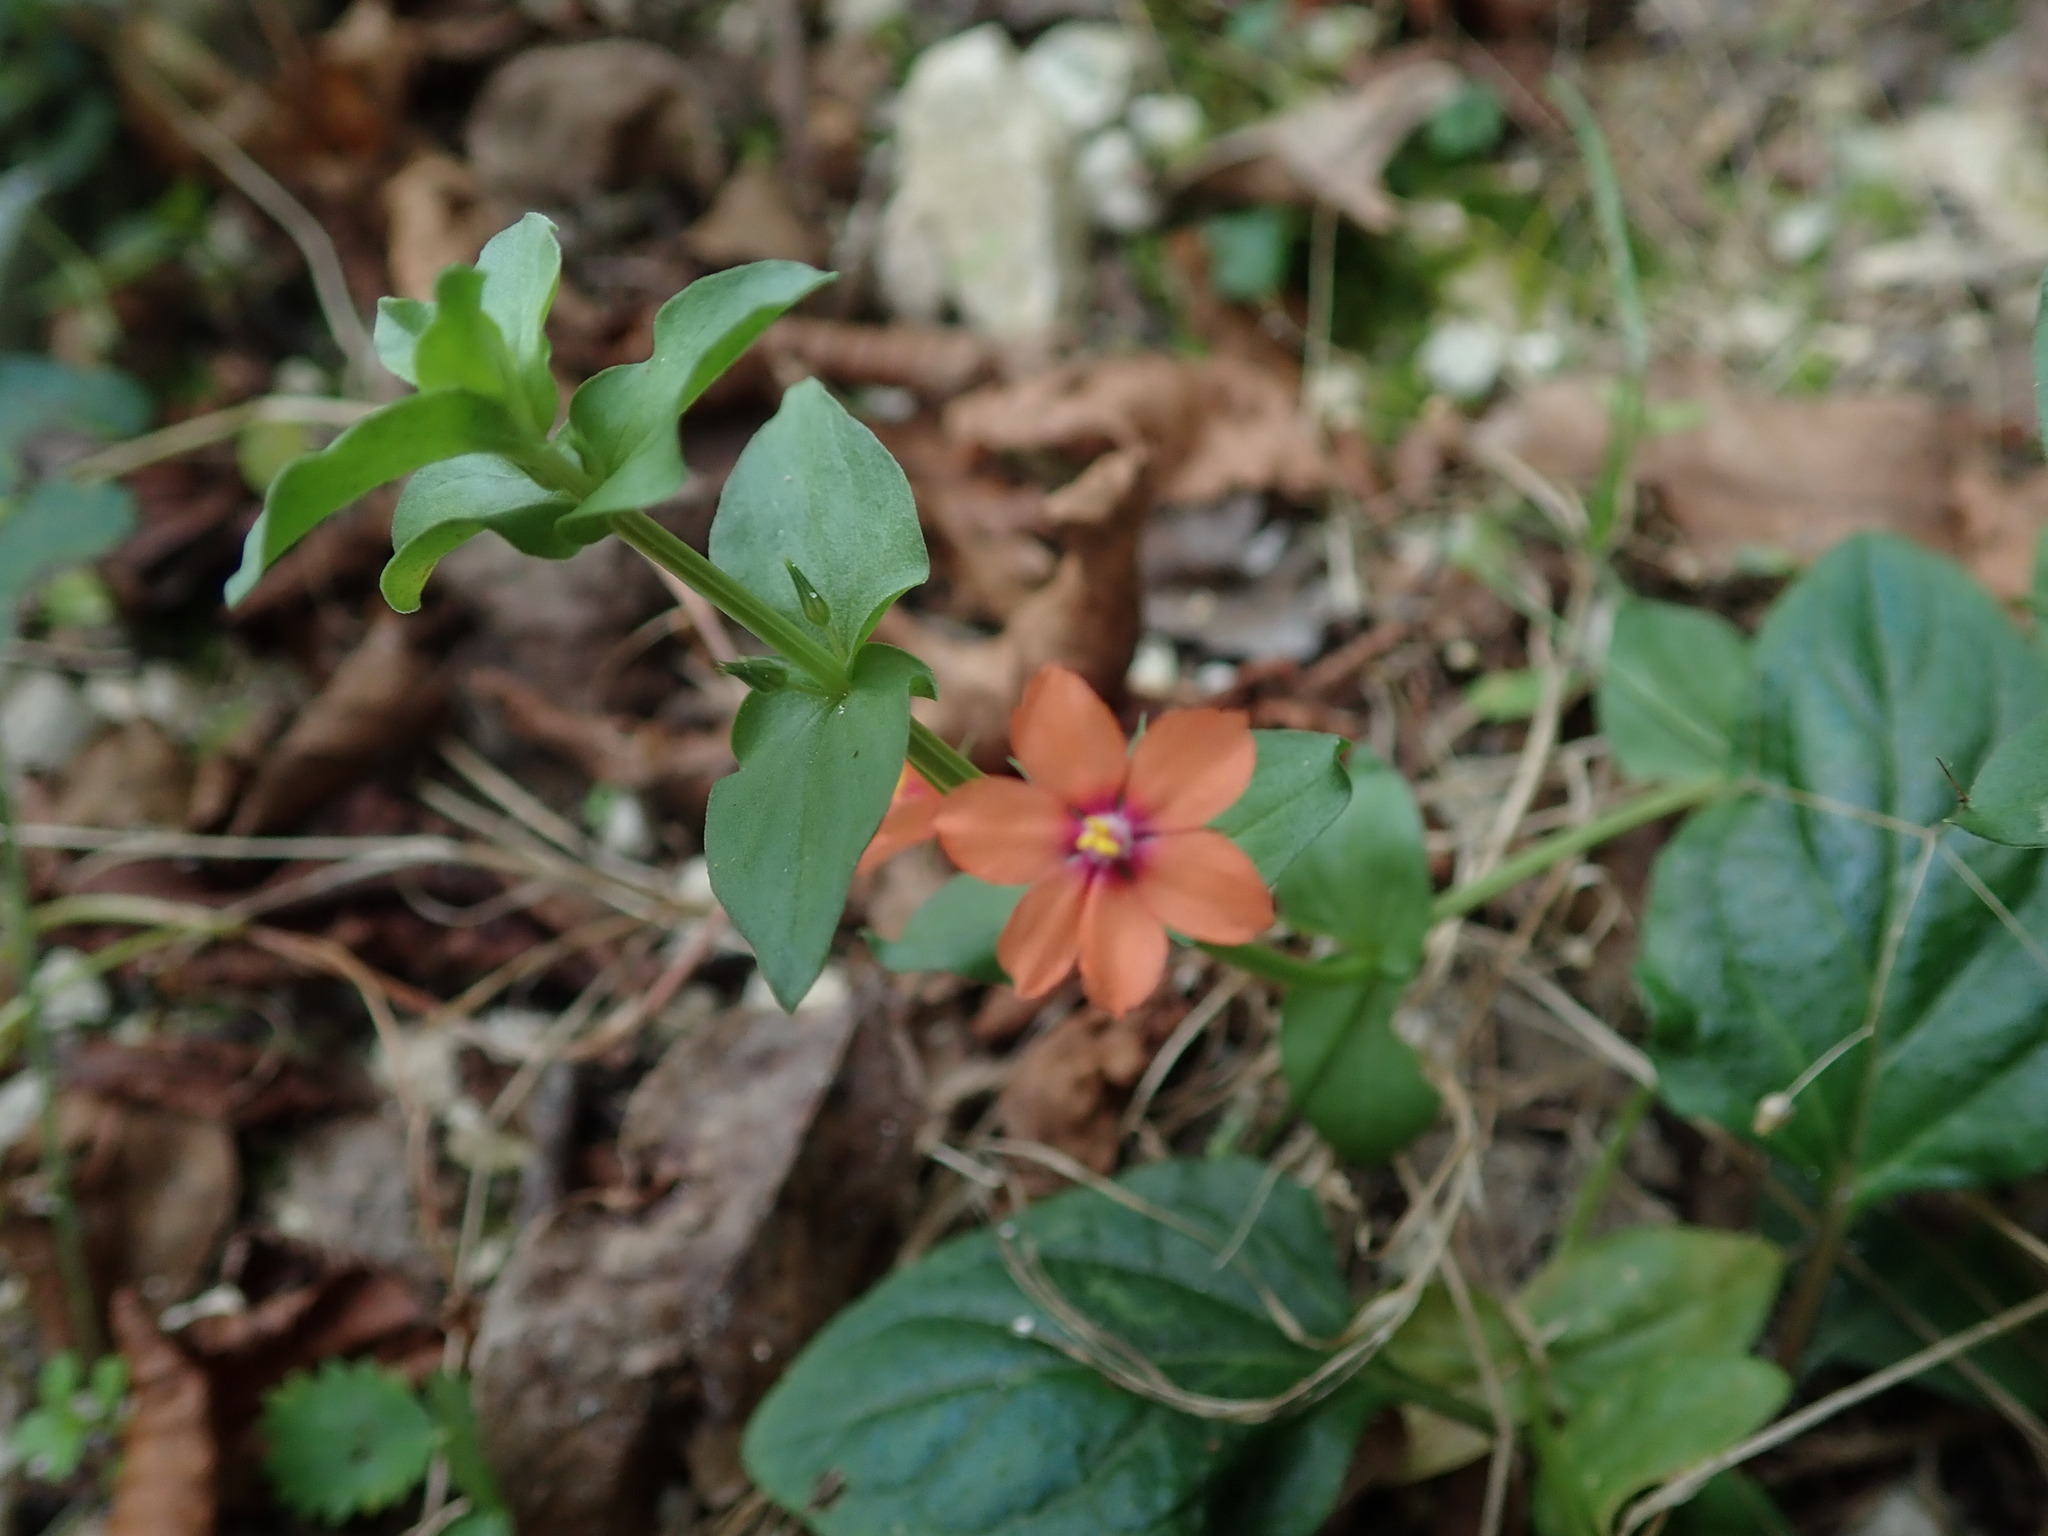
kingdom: Plantae
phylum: Tracheophyta
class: Magnoliopsida
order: Ericales
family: Primulaceae
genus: Lysimachia
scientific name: Lysimachia arvensis
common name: Scarlet pimpernel
